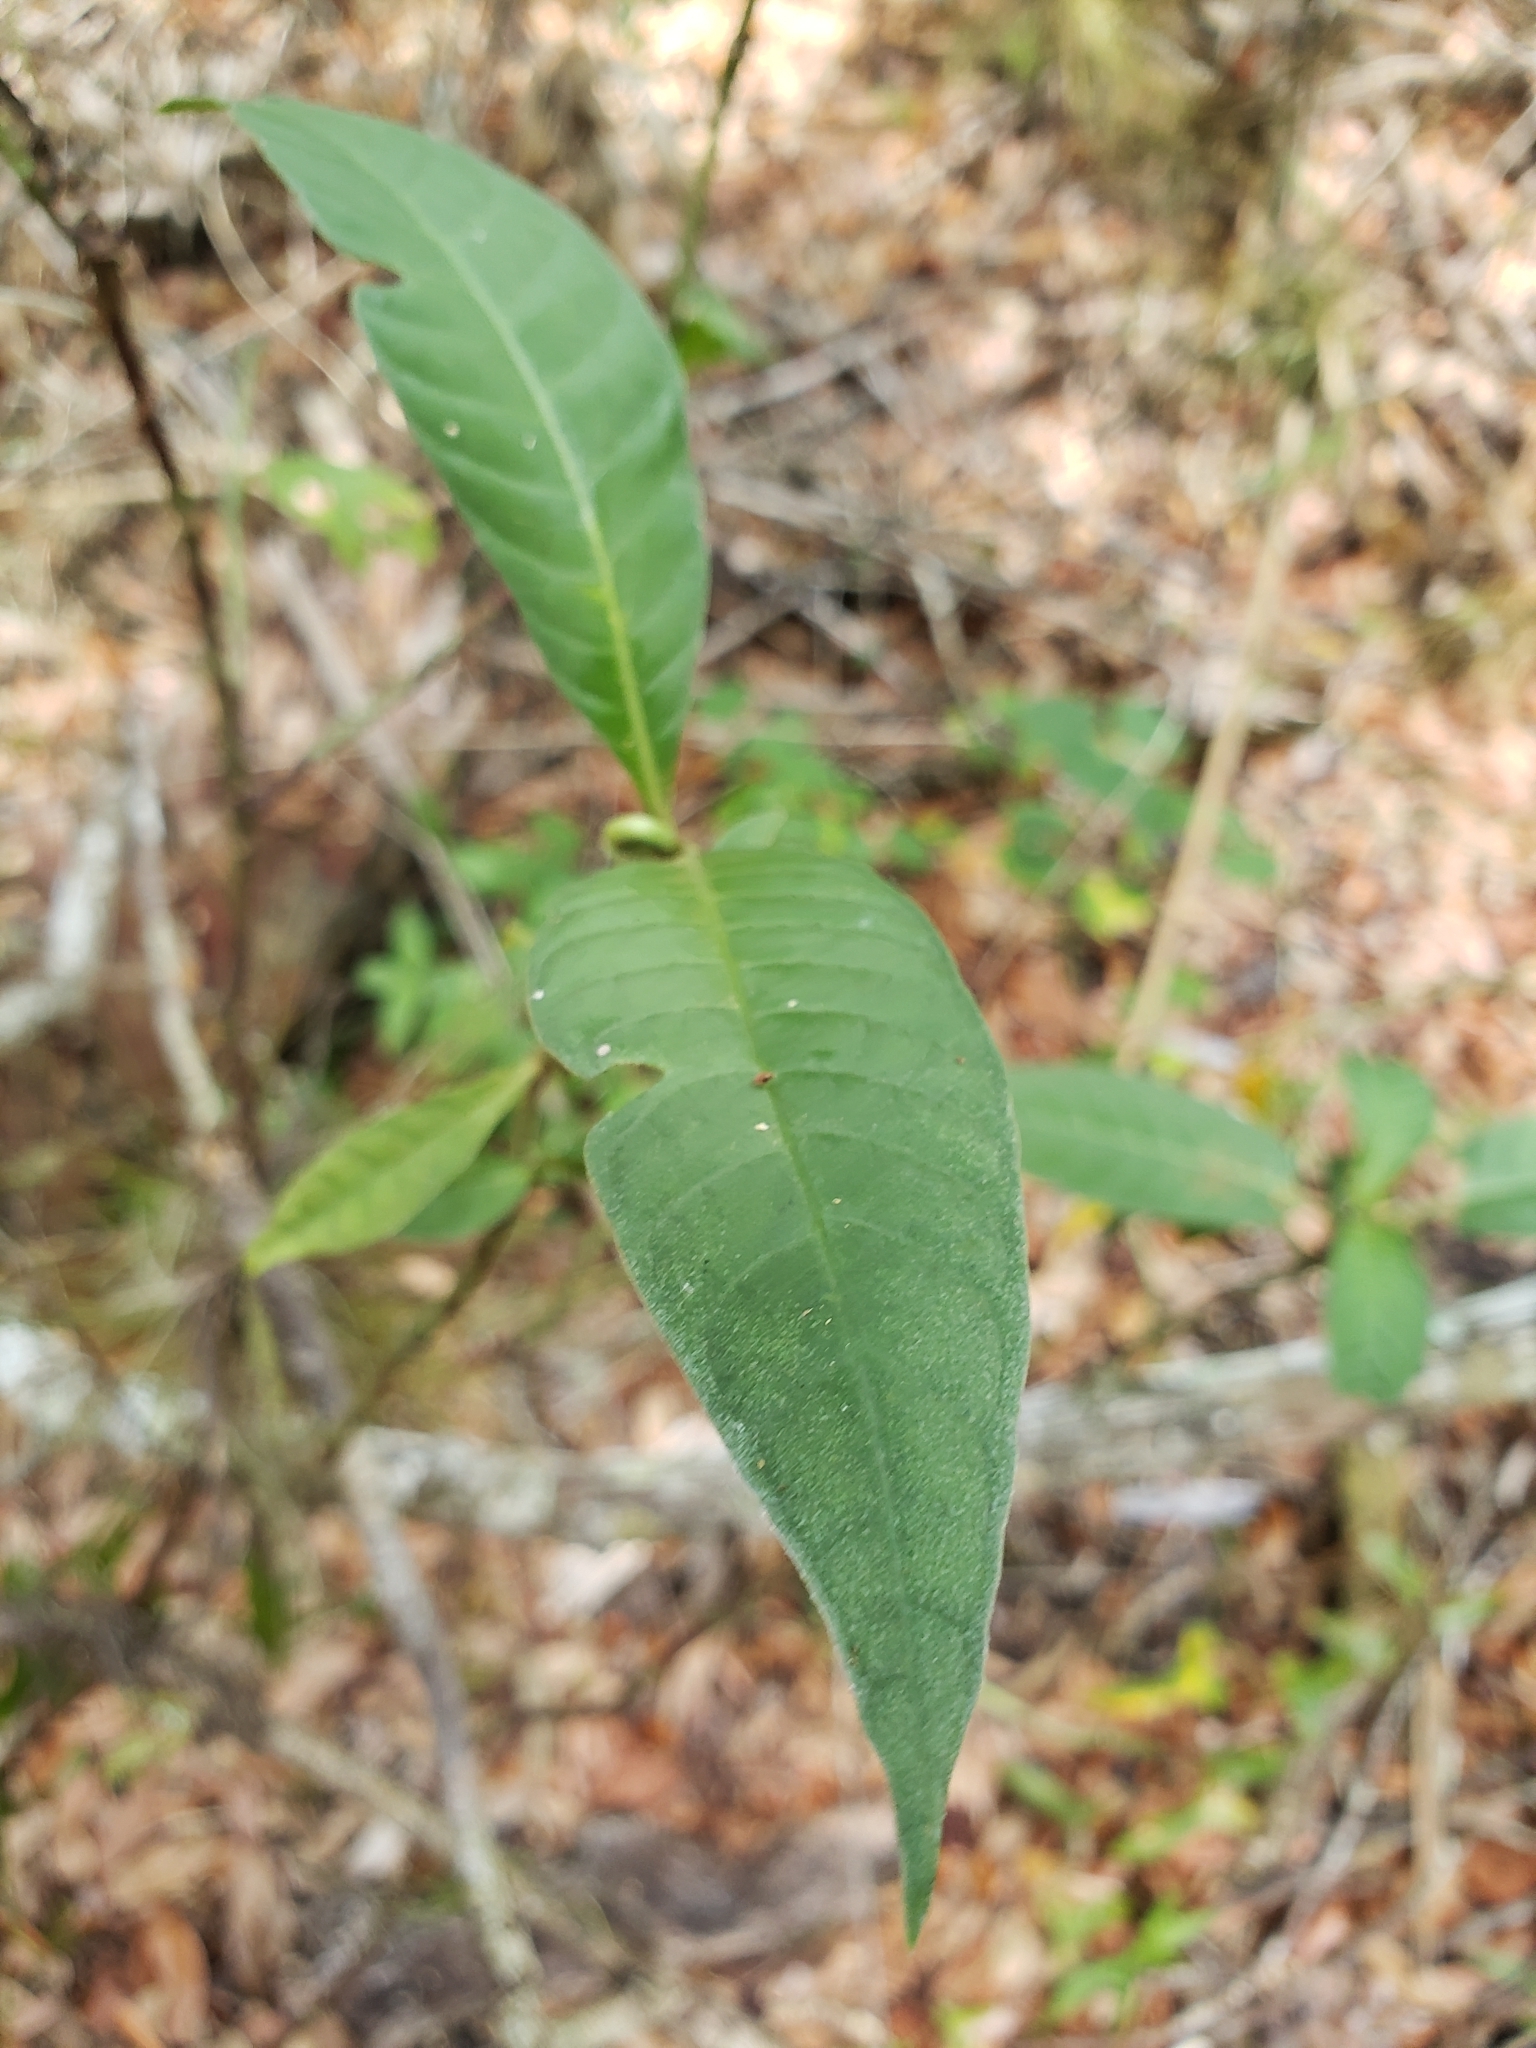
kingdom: Plantae
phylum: Tracheophyta
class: Magnoliopsida
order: Gentianales
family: Rubiaceae
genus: Psychotria
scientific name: Psychotria tenuifolia
